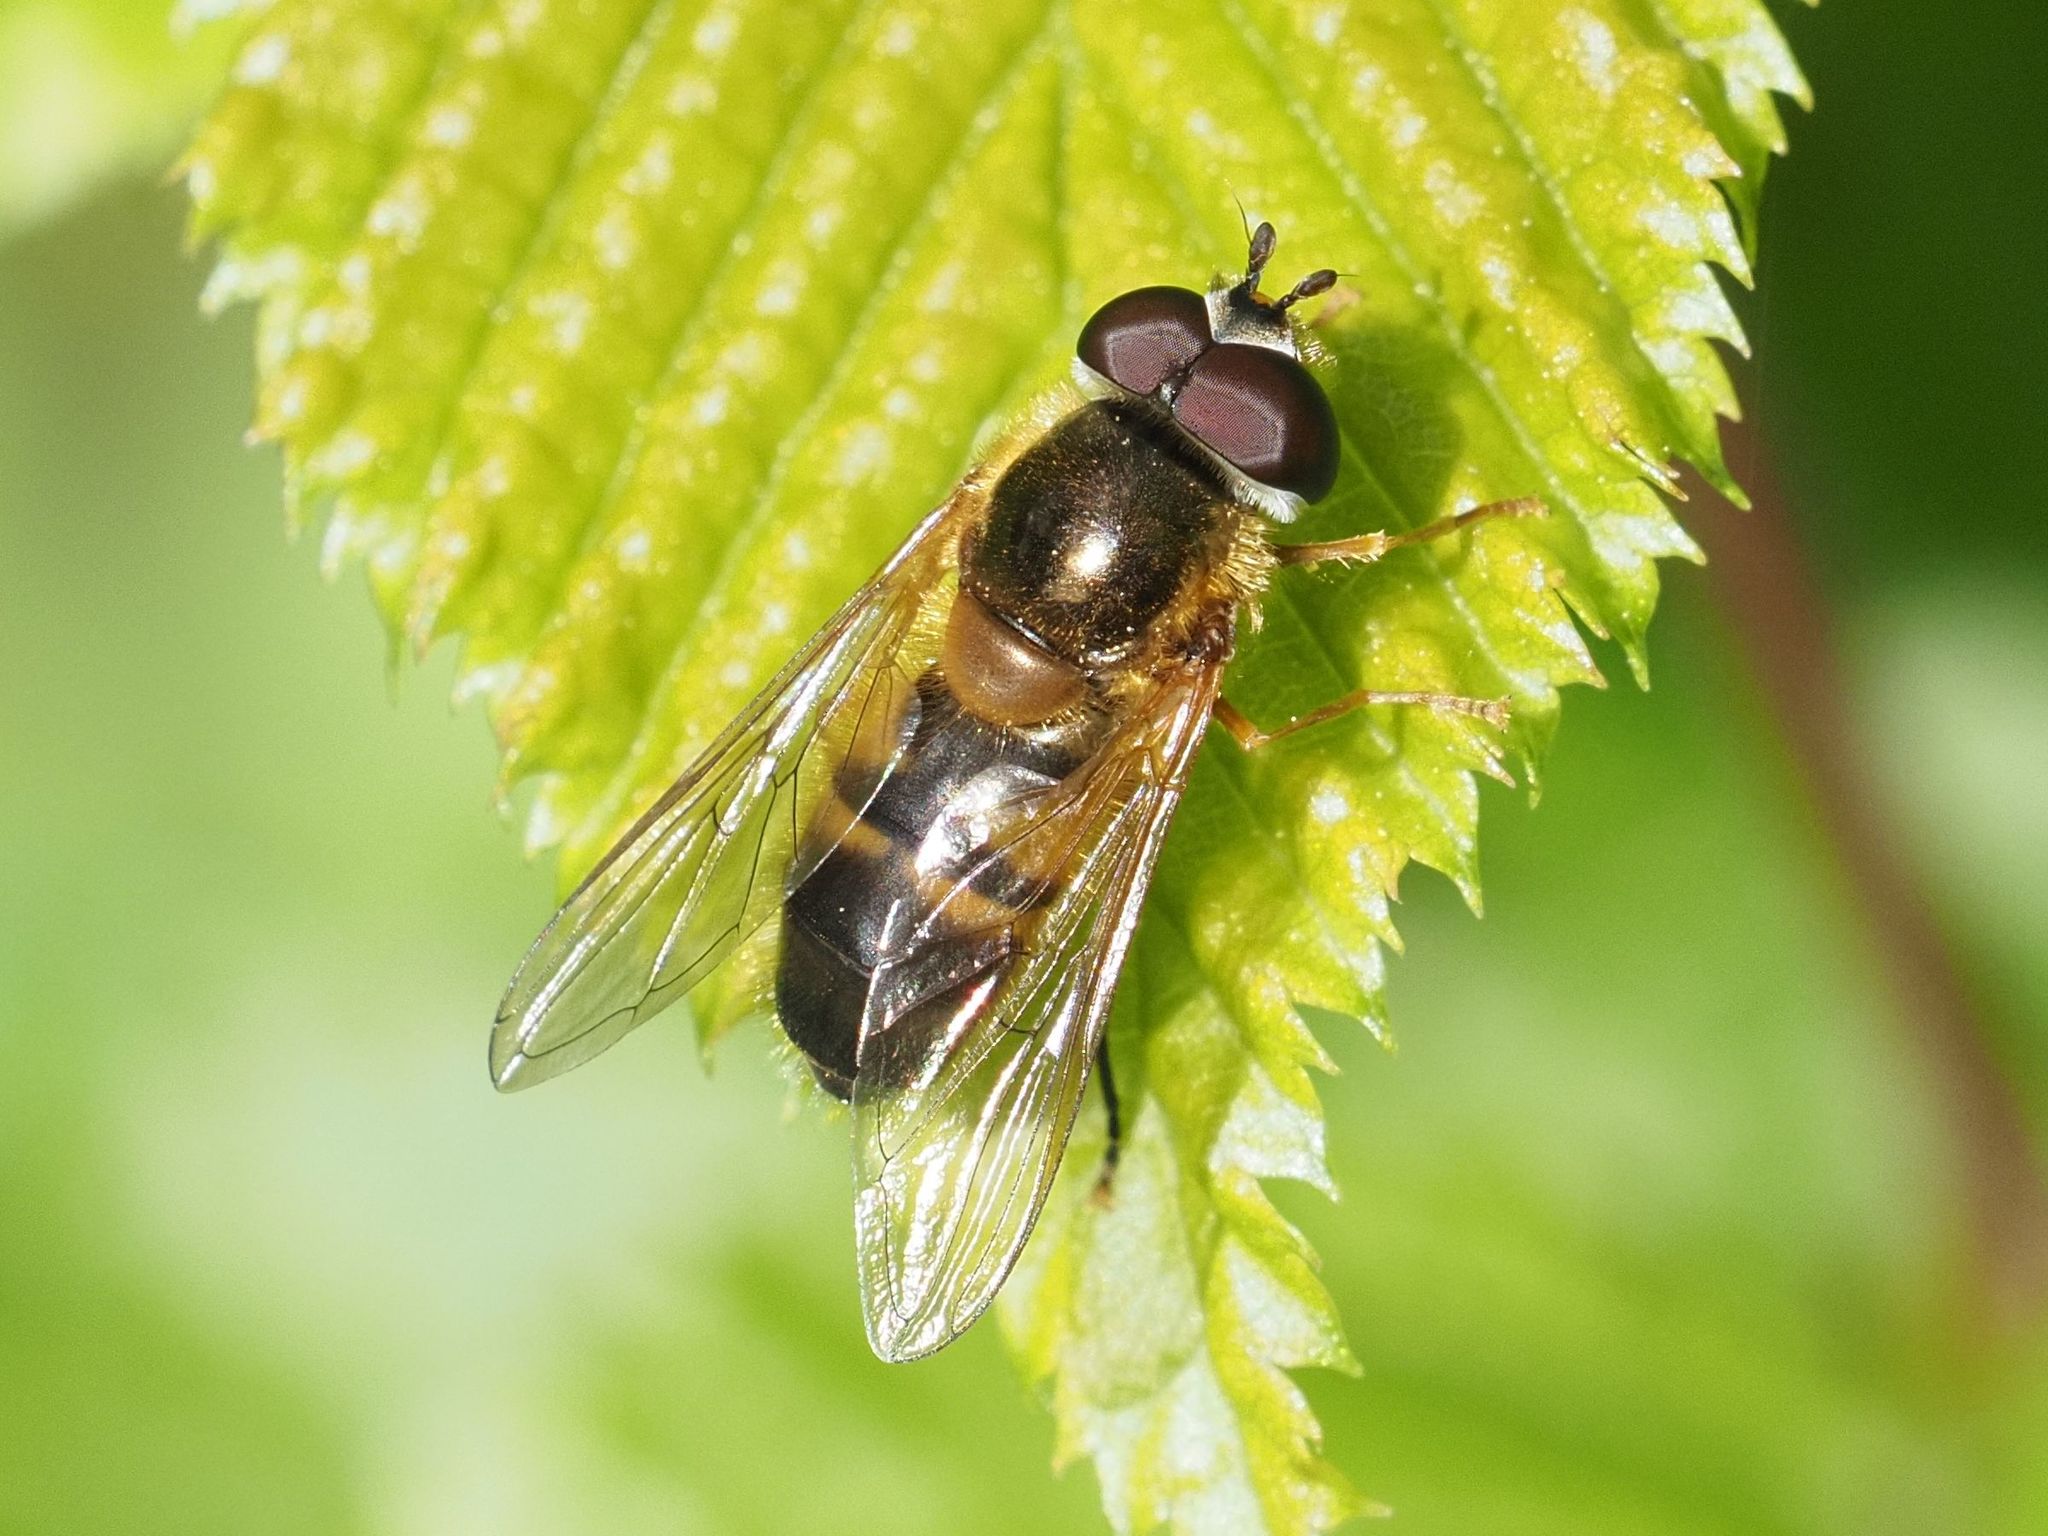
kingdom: Animalia
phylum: Arthropoda
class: Insecta
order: Diptera
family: Syrphidae
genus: Epistrophe
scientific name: Epistrophe eligans
